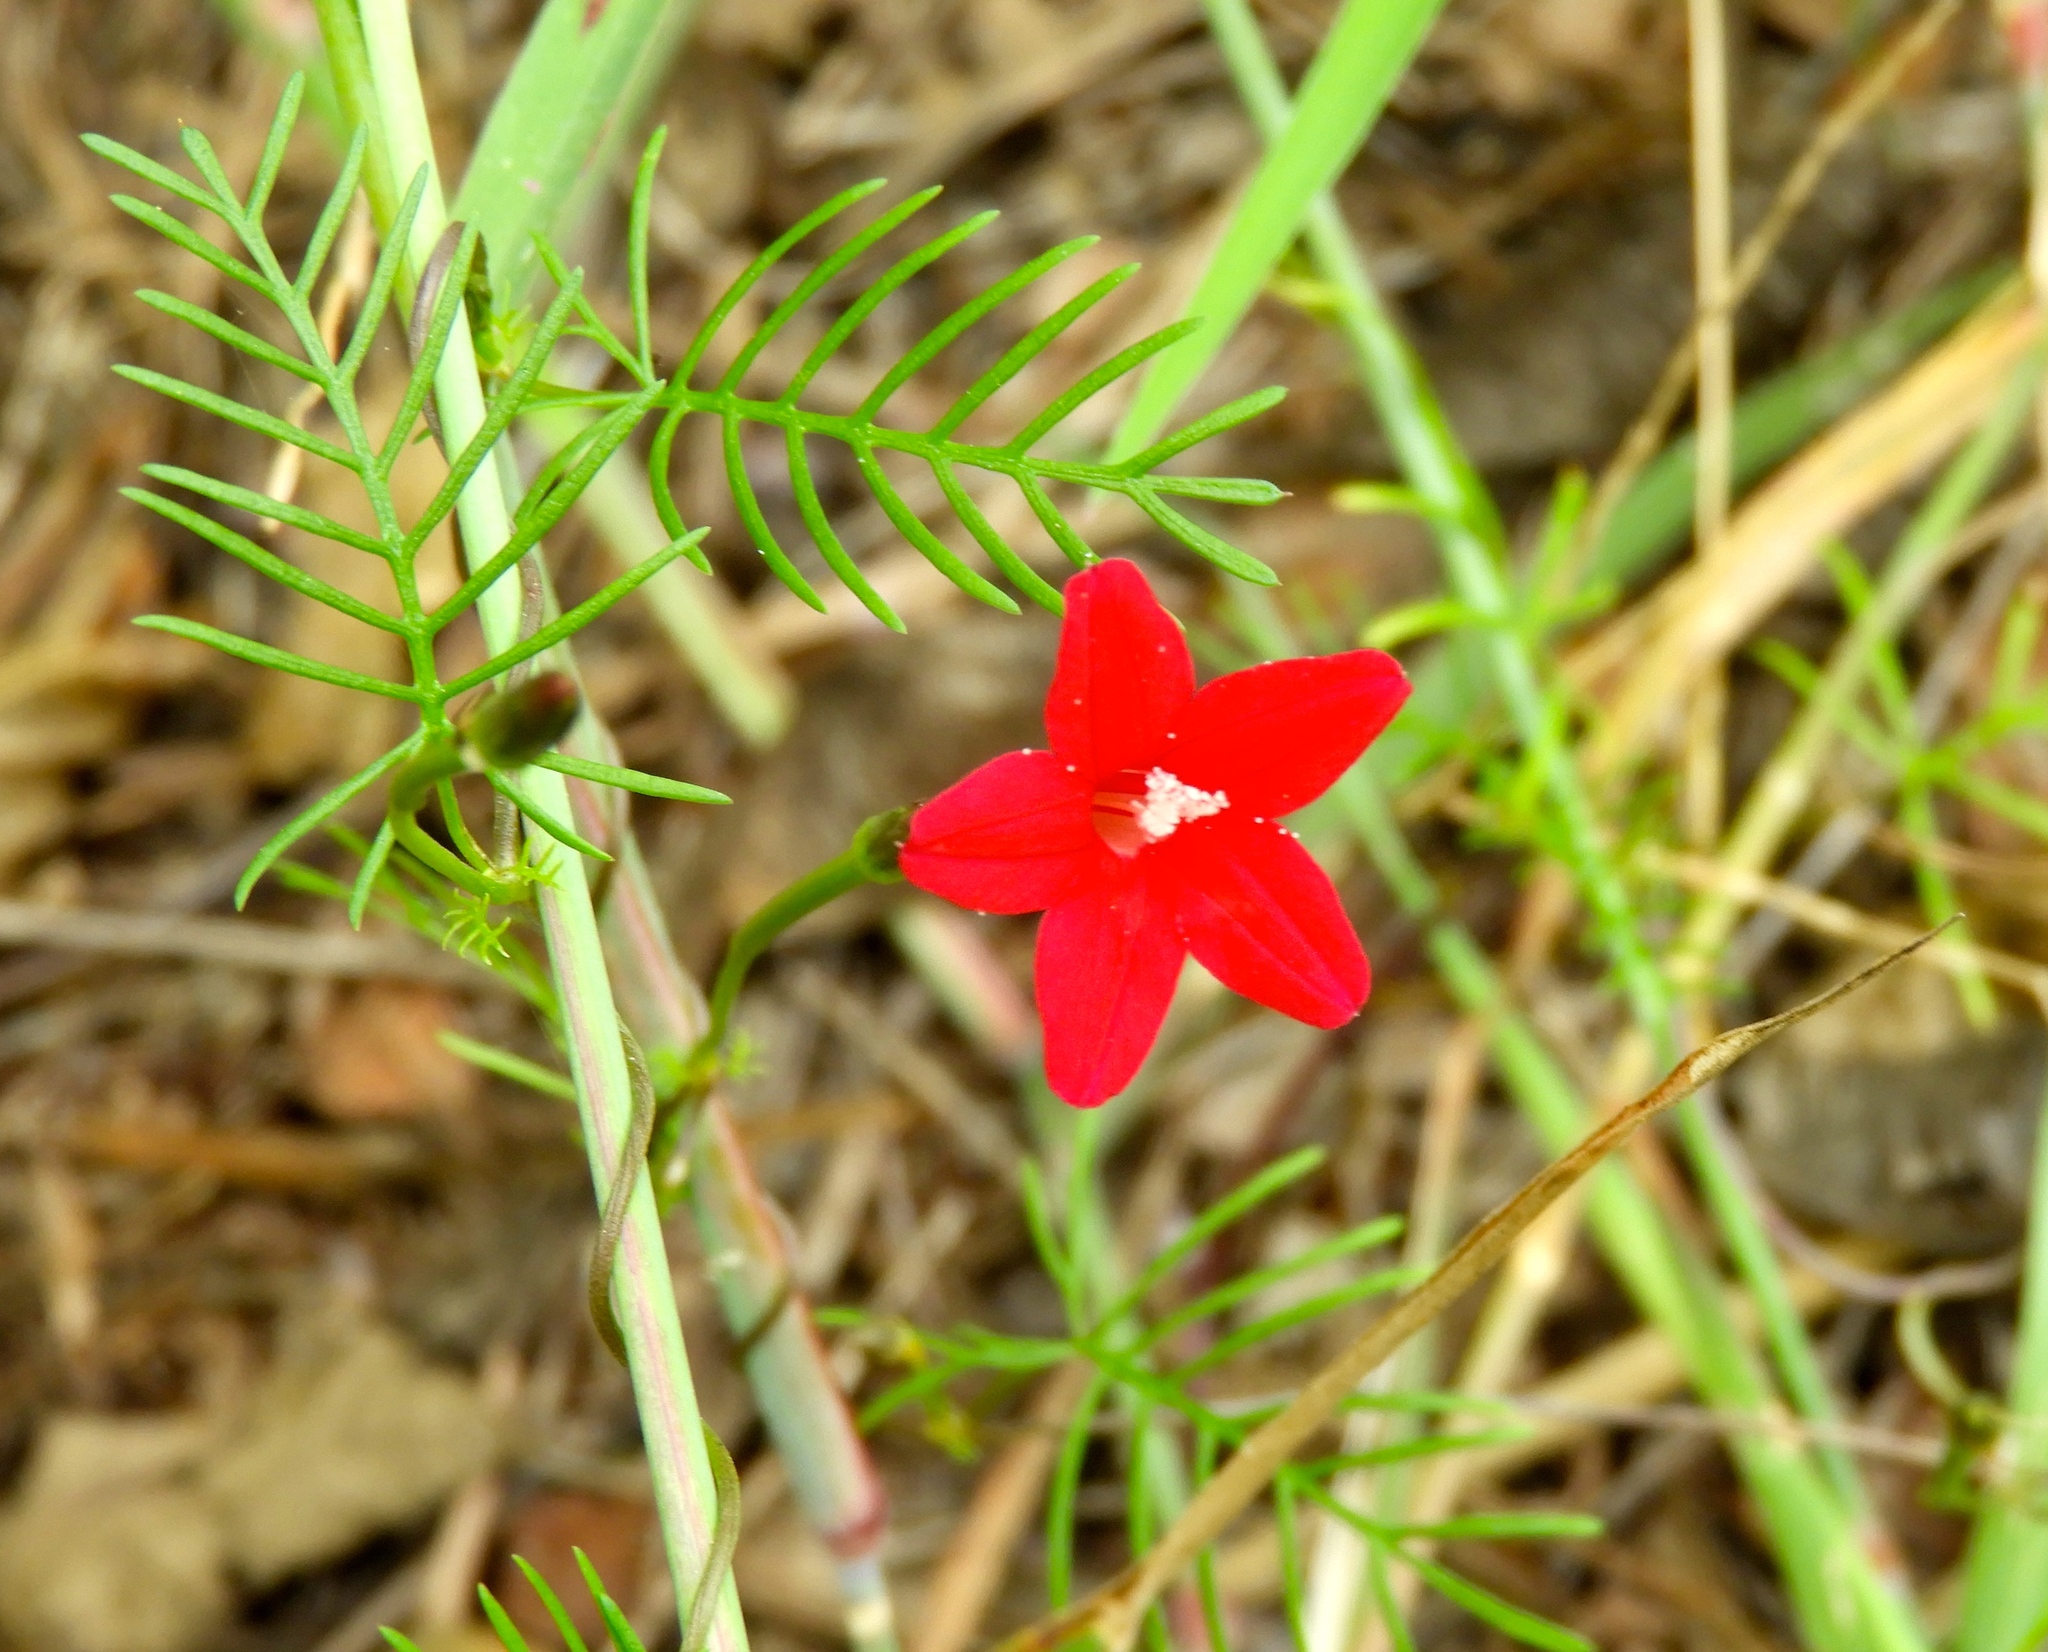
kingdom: Plantae
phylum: Tracheophyta
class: Magnoliopsida
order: Solanales
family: Convolvulaceae
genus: Ipomoea
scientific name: Ipomoea quamoclit
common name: Cypress vine
